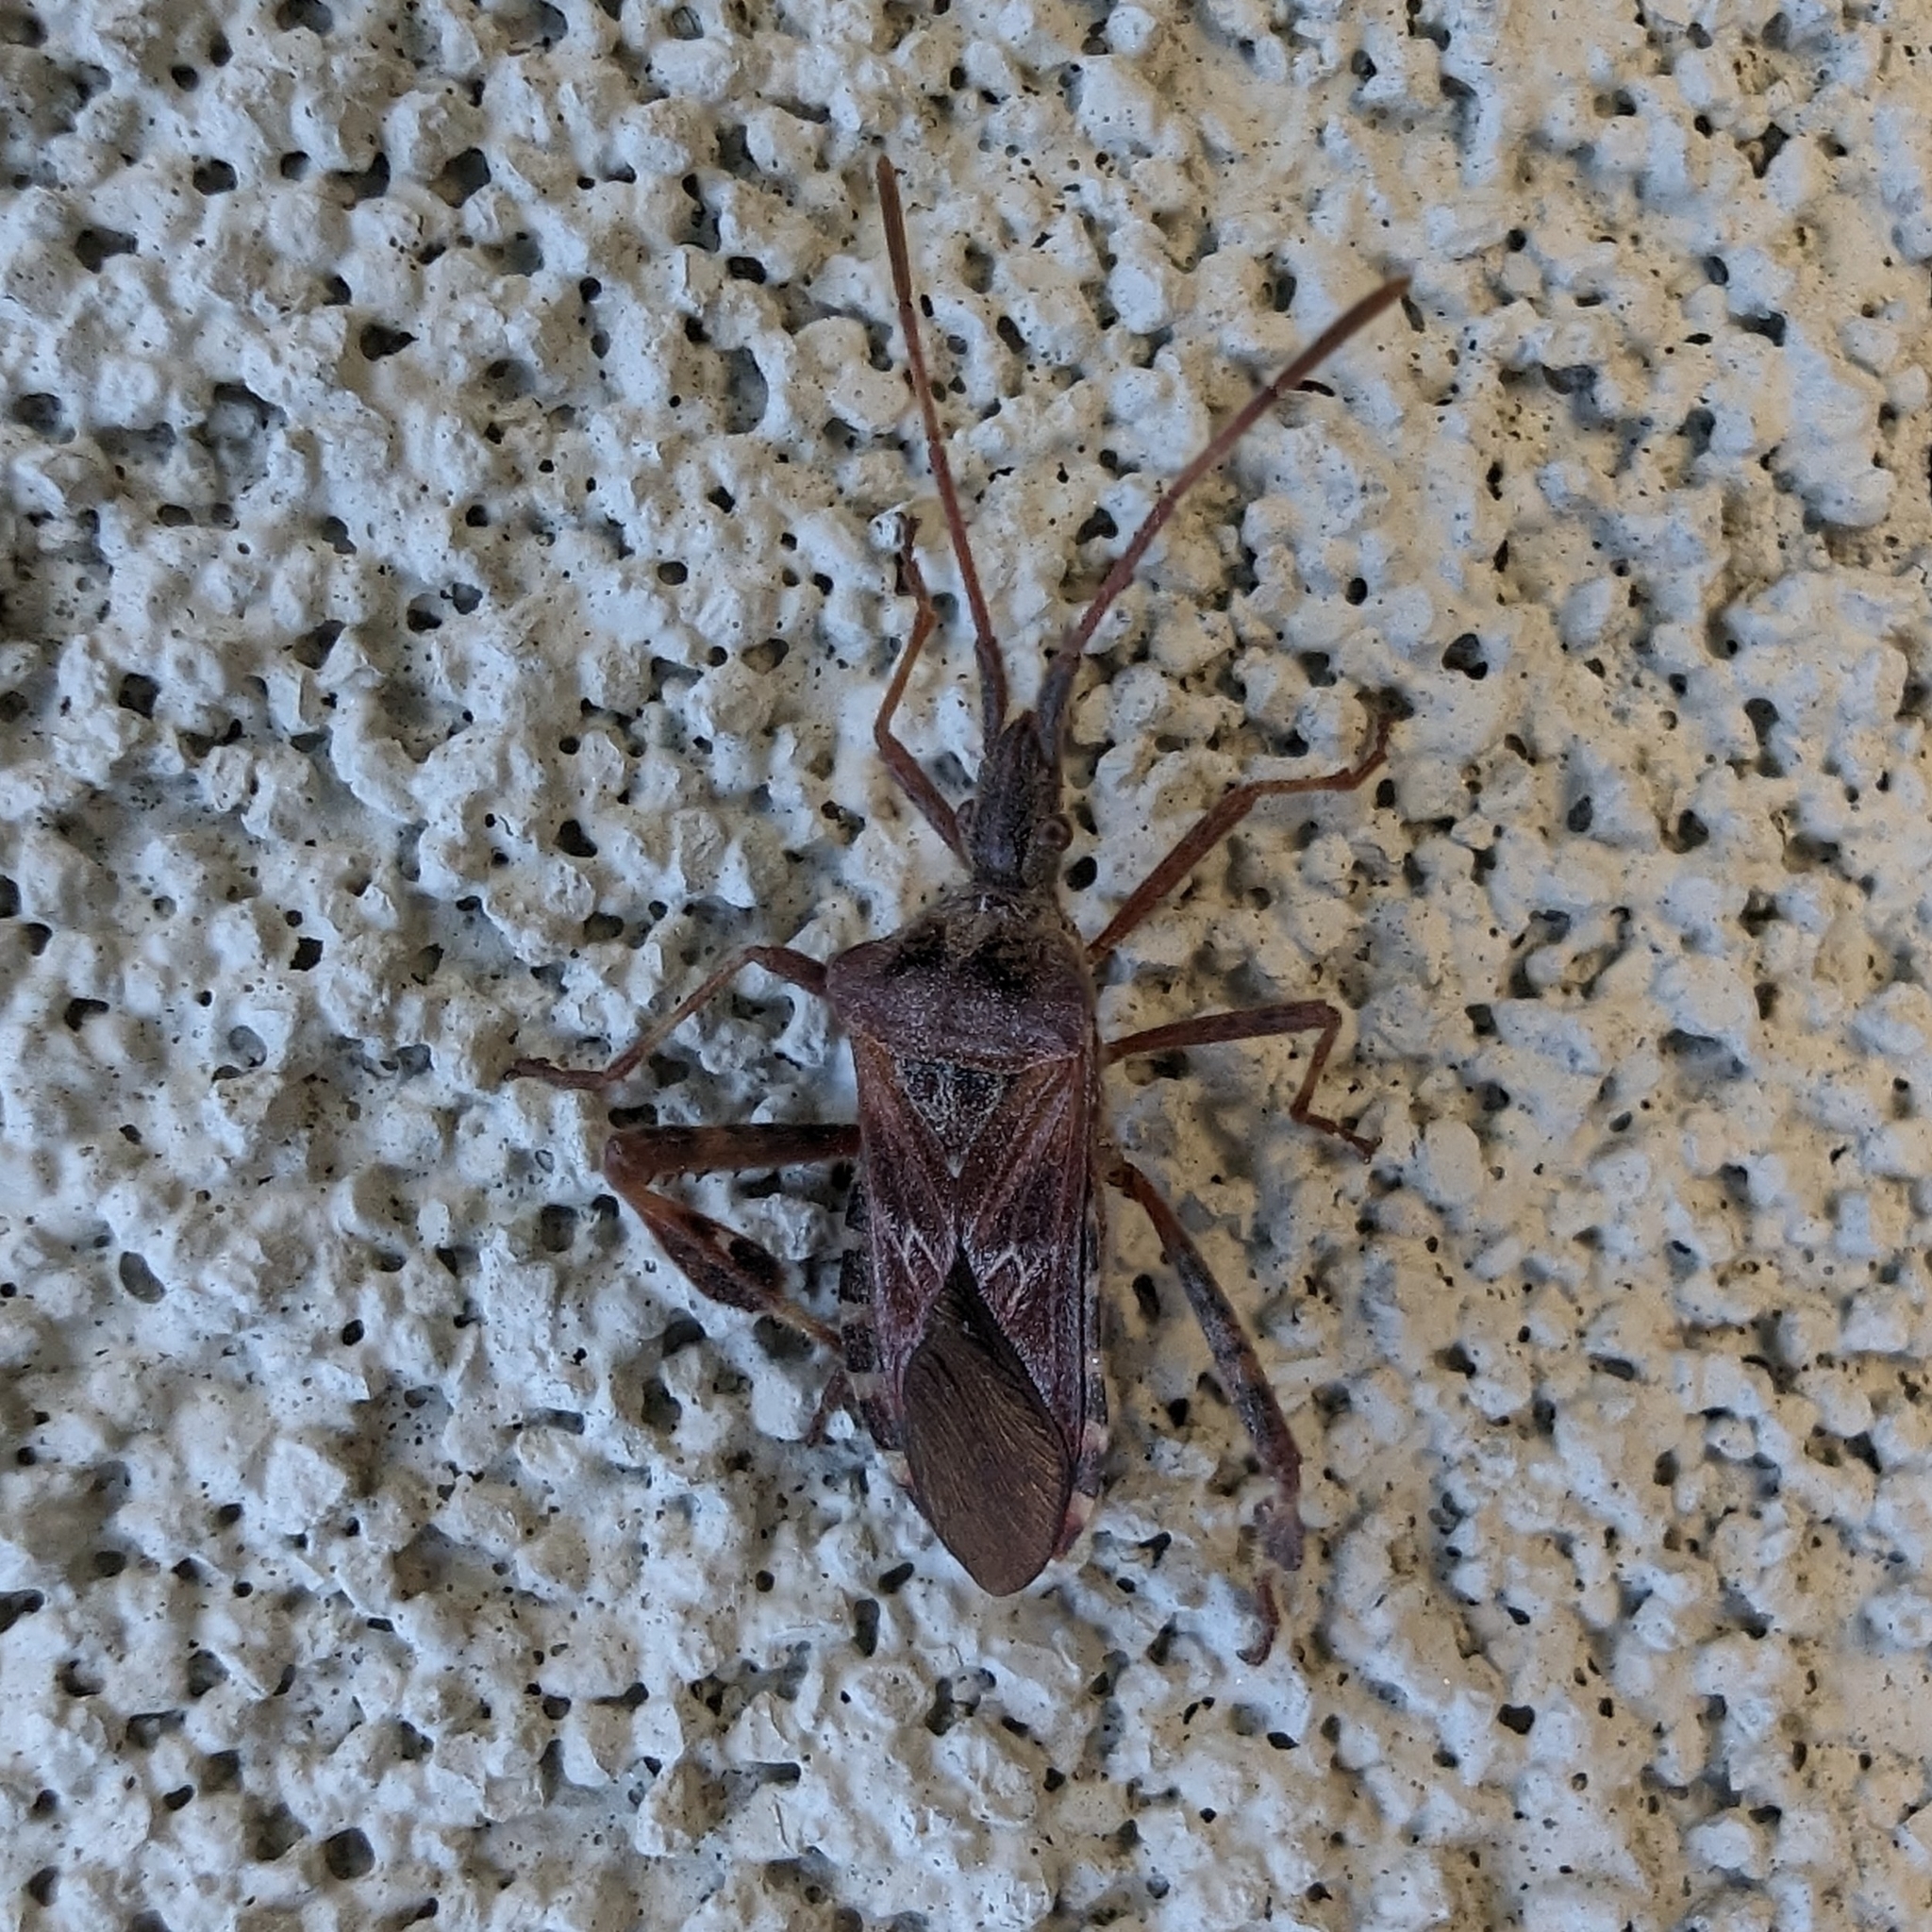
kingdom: Animalia
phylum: Arthropoda
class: Insecta
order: Hemiptera
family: Coreidae
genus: Leptoglossus
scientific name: Leptoglossus occidentalis
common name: Western conifer-seed bug
